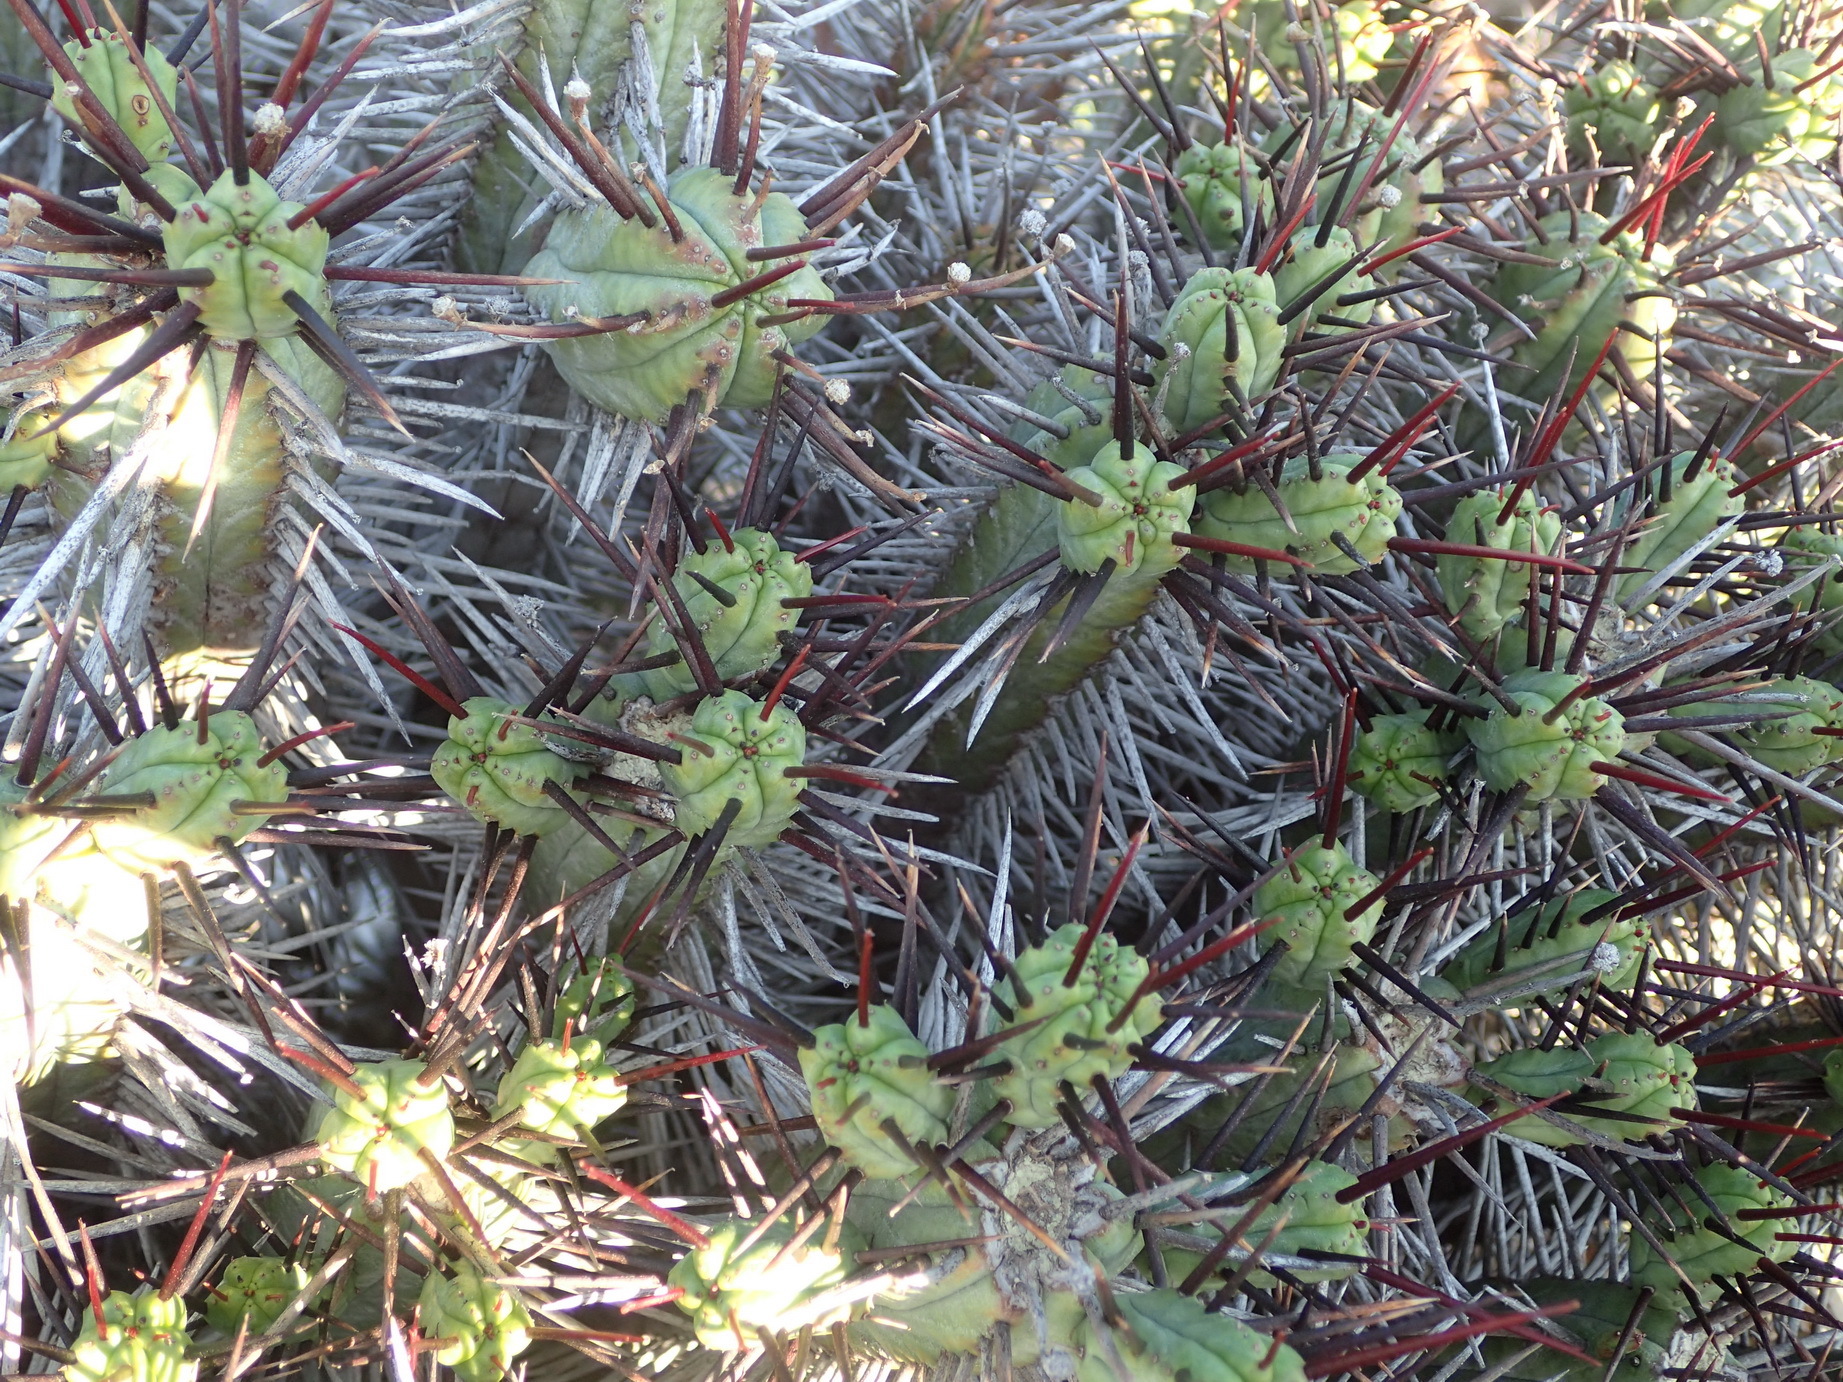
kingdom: Plantae
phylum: Tracheophyta
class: Magnoliopsida
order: Malpighiales
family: Euphorbiaceae
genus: Euphorbia
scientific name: Euphorbia heptagona
